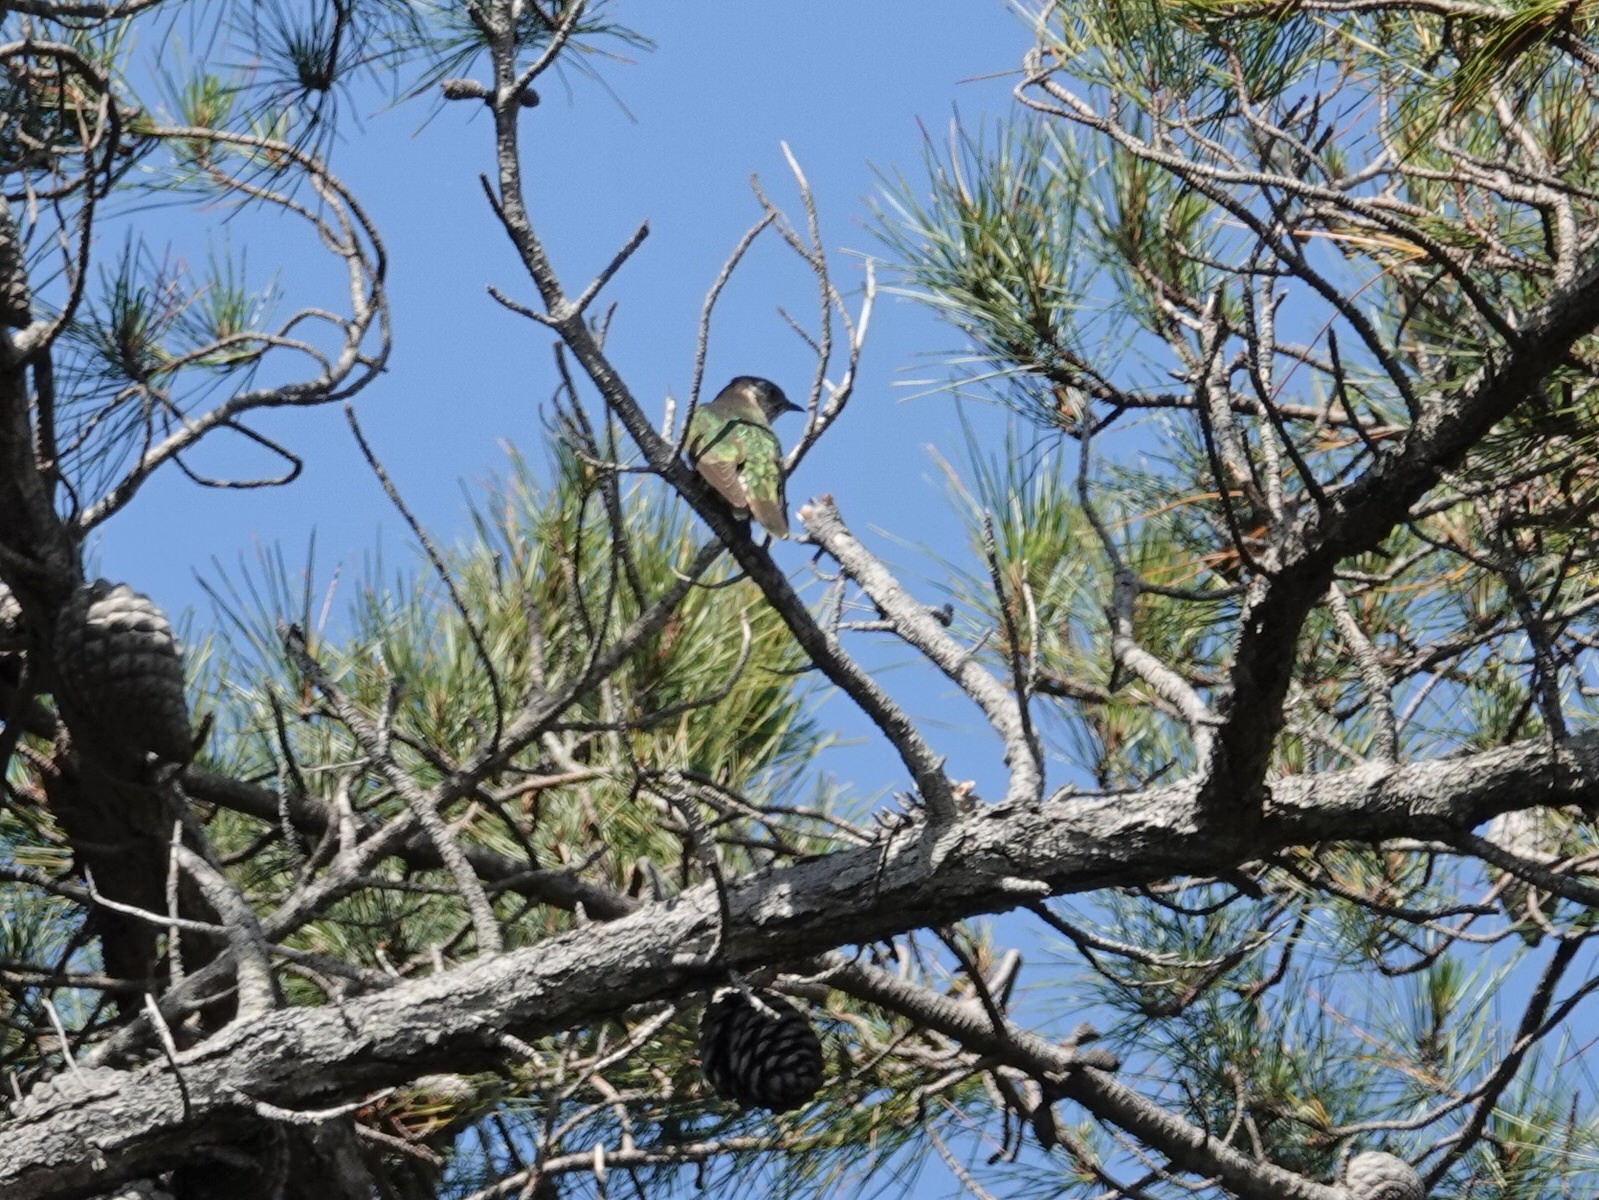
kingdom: Animalia
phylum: Chordata
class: Aves
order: Cuculiformes
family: Cuculidae
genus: Chrysococcyx
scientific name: Chrysococcyx lucidus
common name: Shining bronze cuckoo
